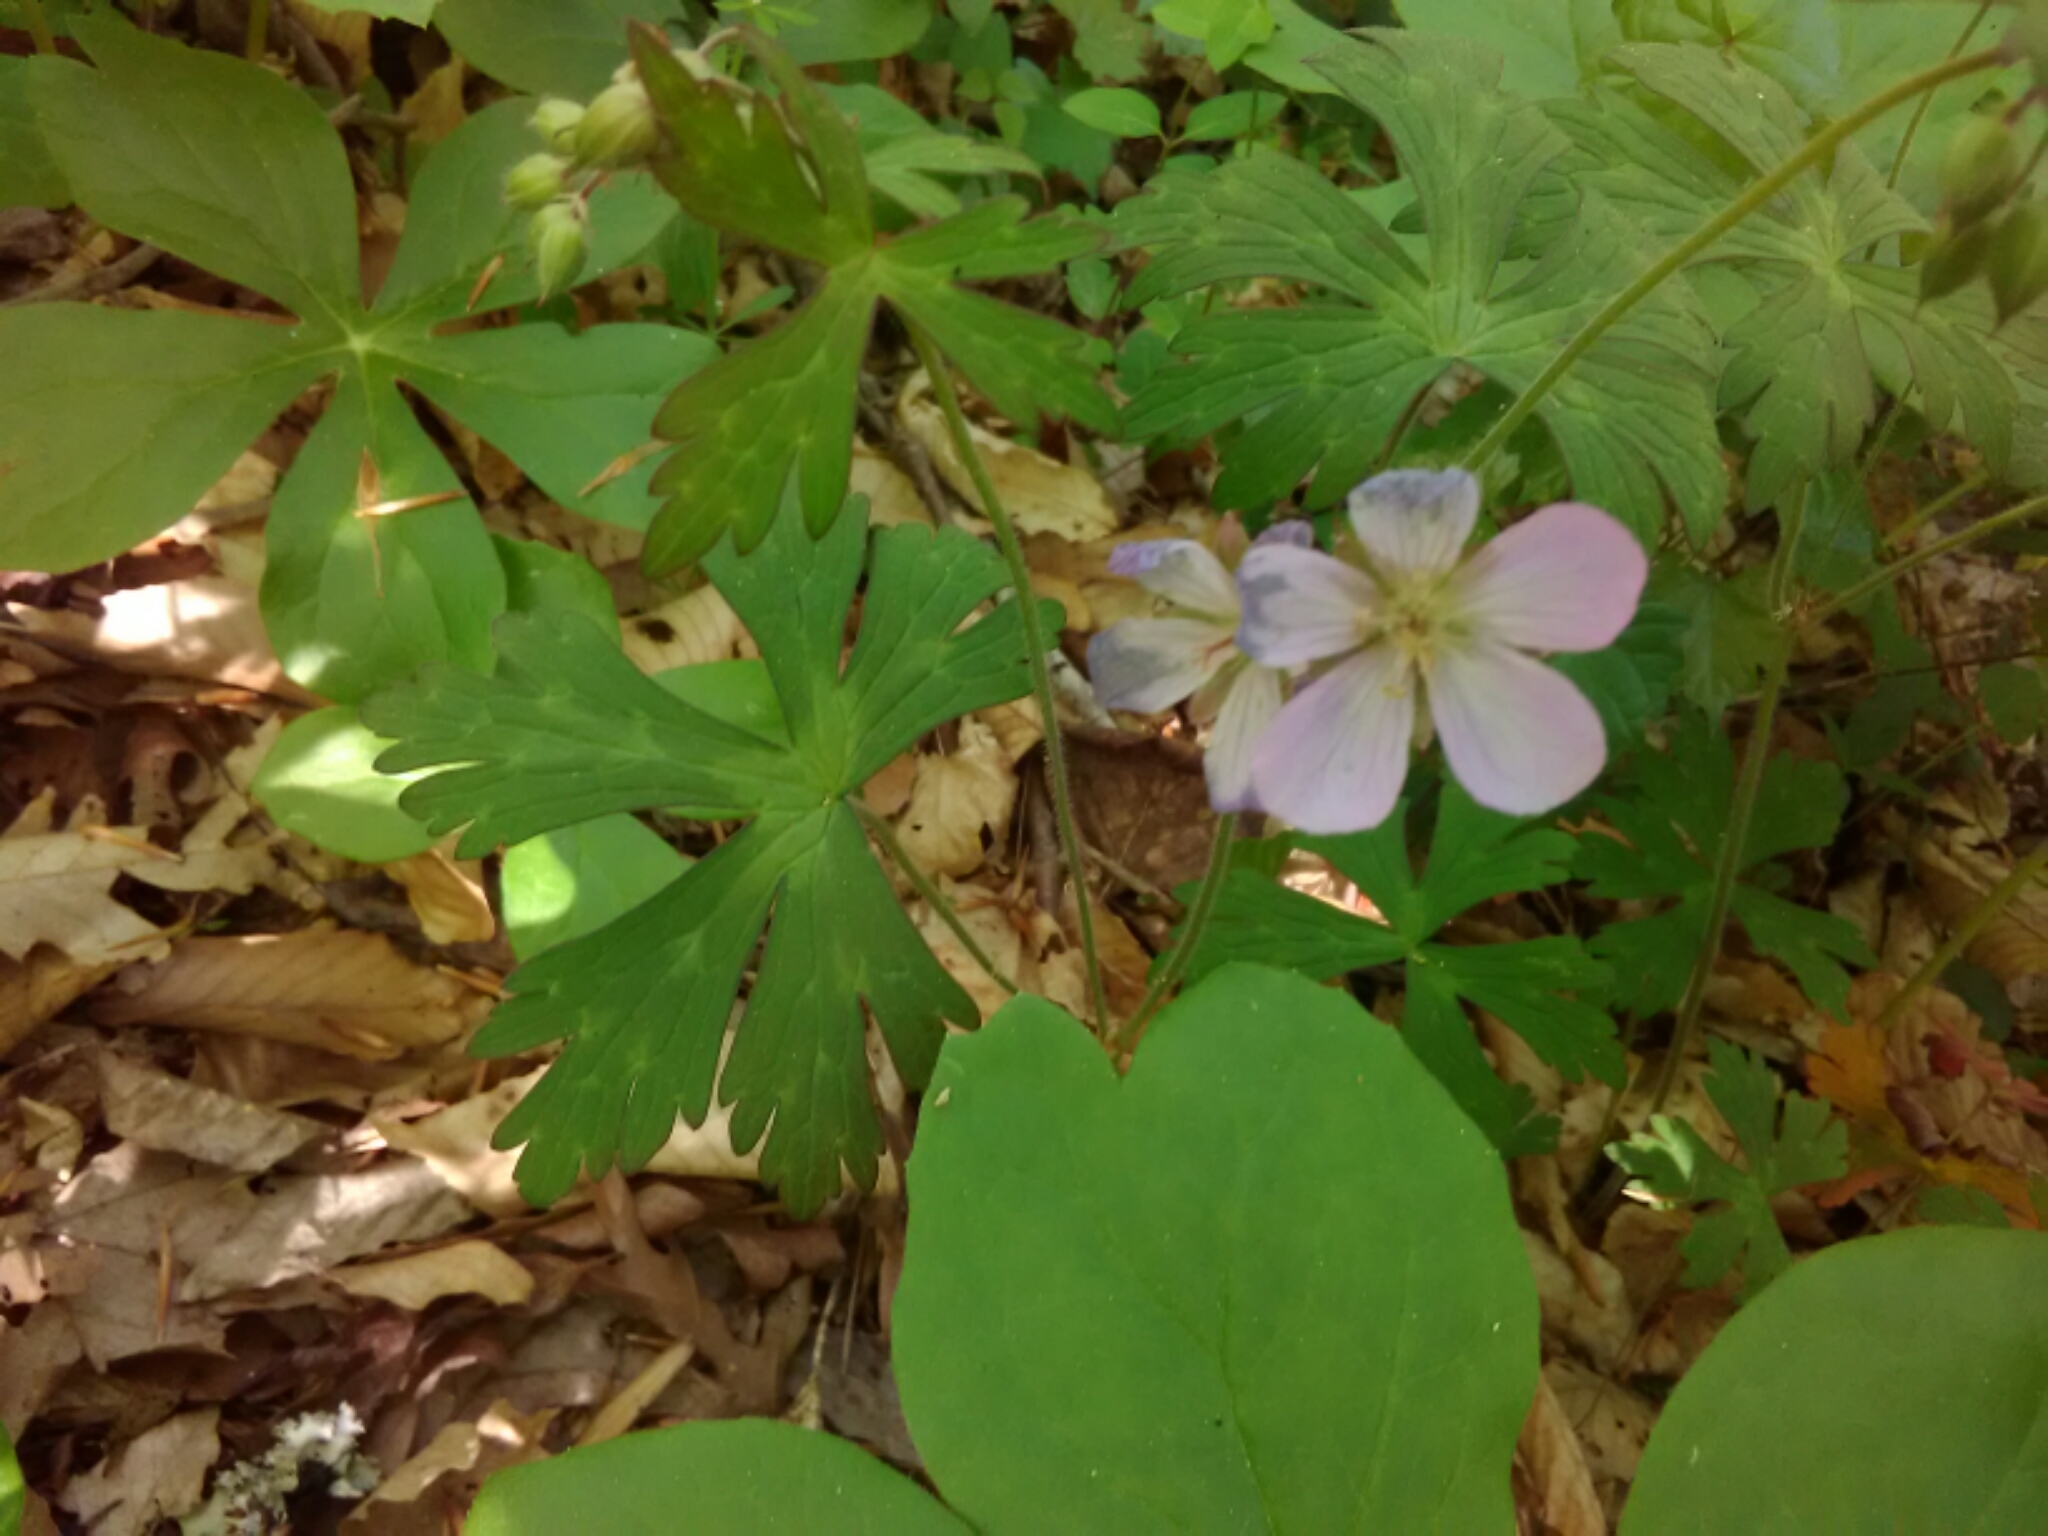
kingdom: Plantae
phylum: Tracheophyta
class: Magnoliopsida
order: Geraniales
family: Geraniaceae
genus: Geranium
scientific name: Geranium maculatum
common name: Spotted geranium
